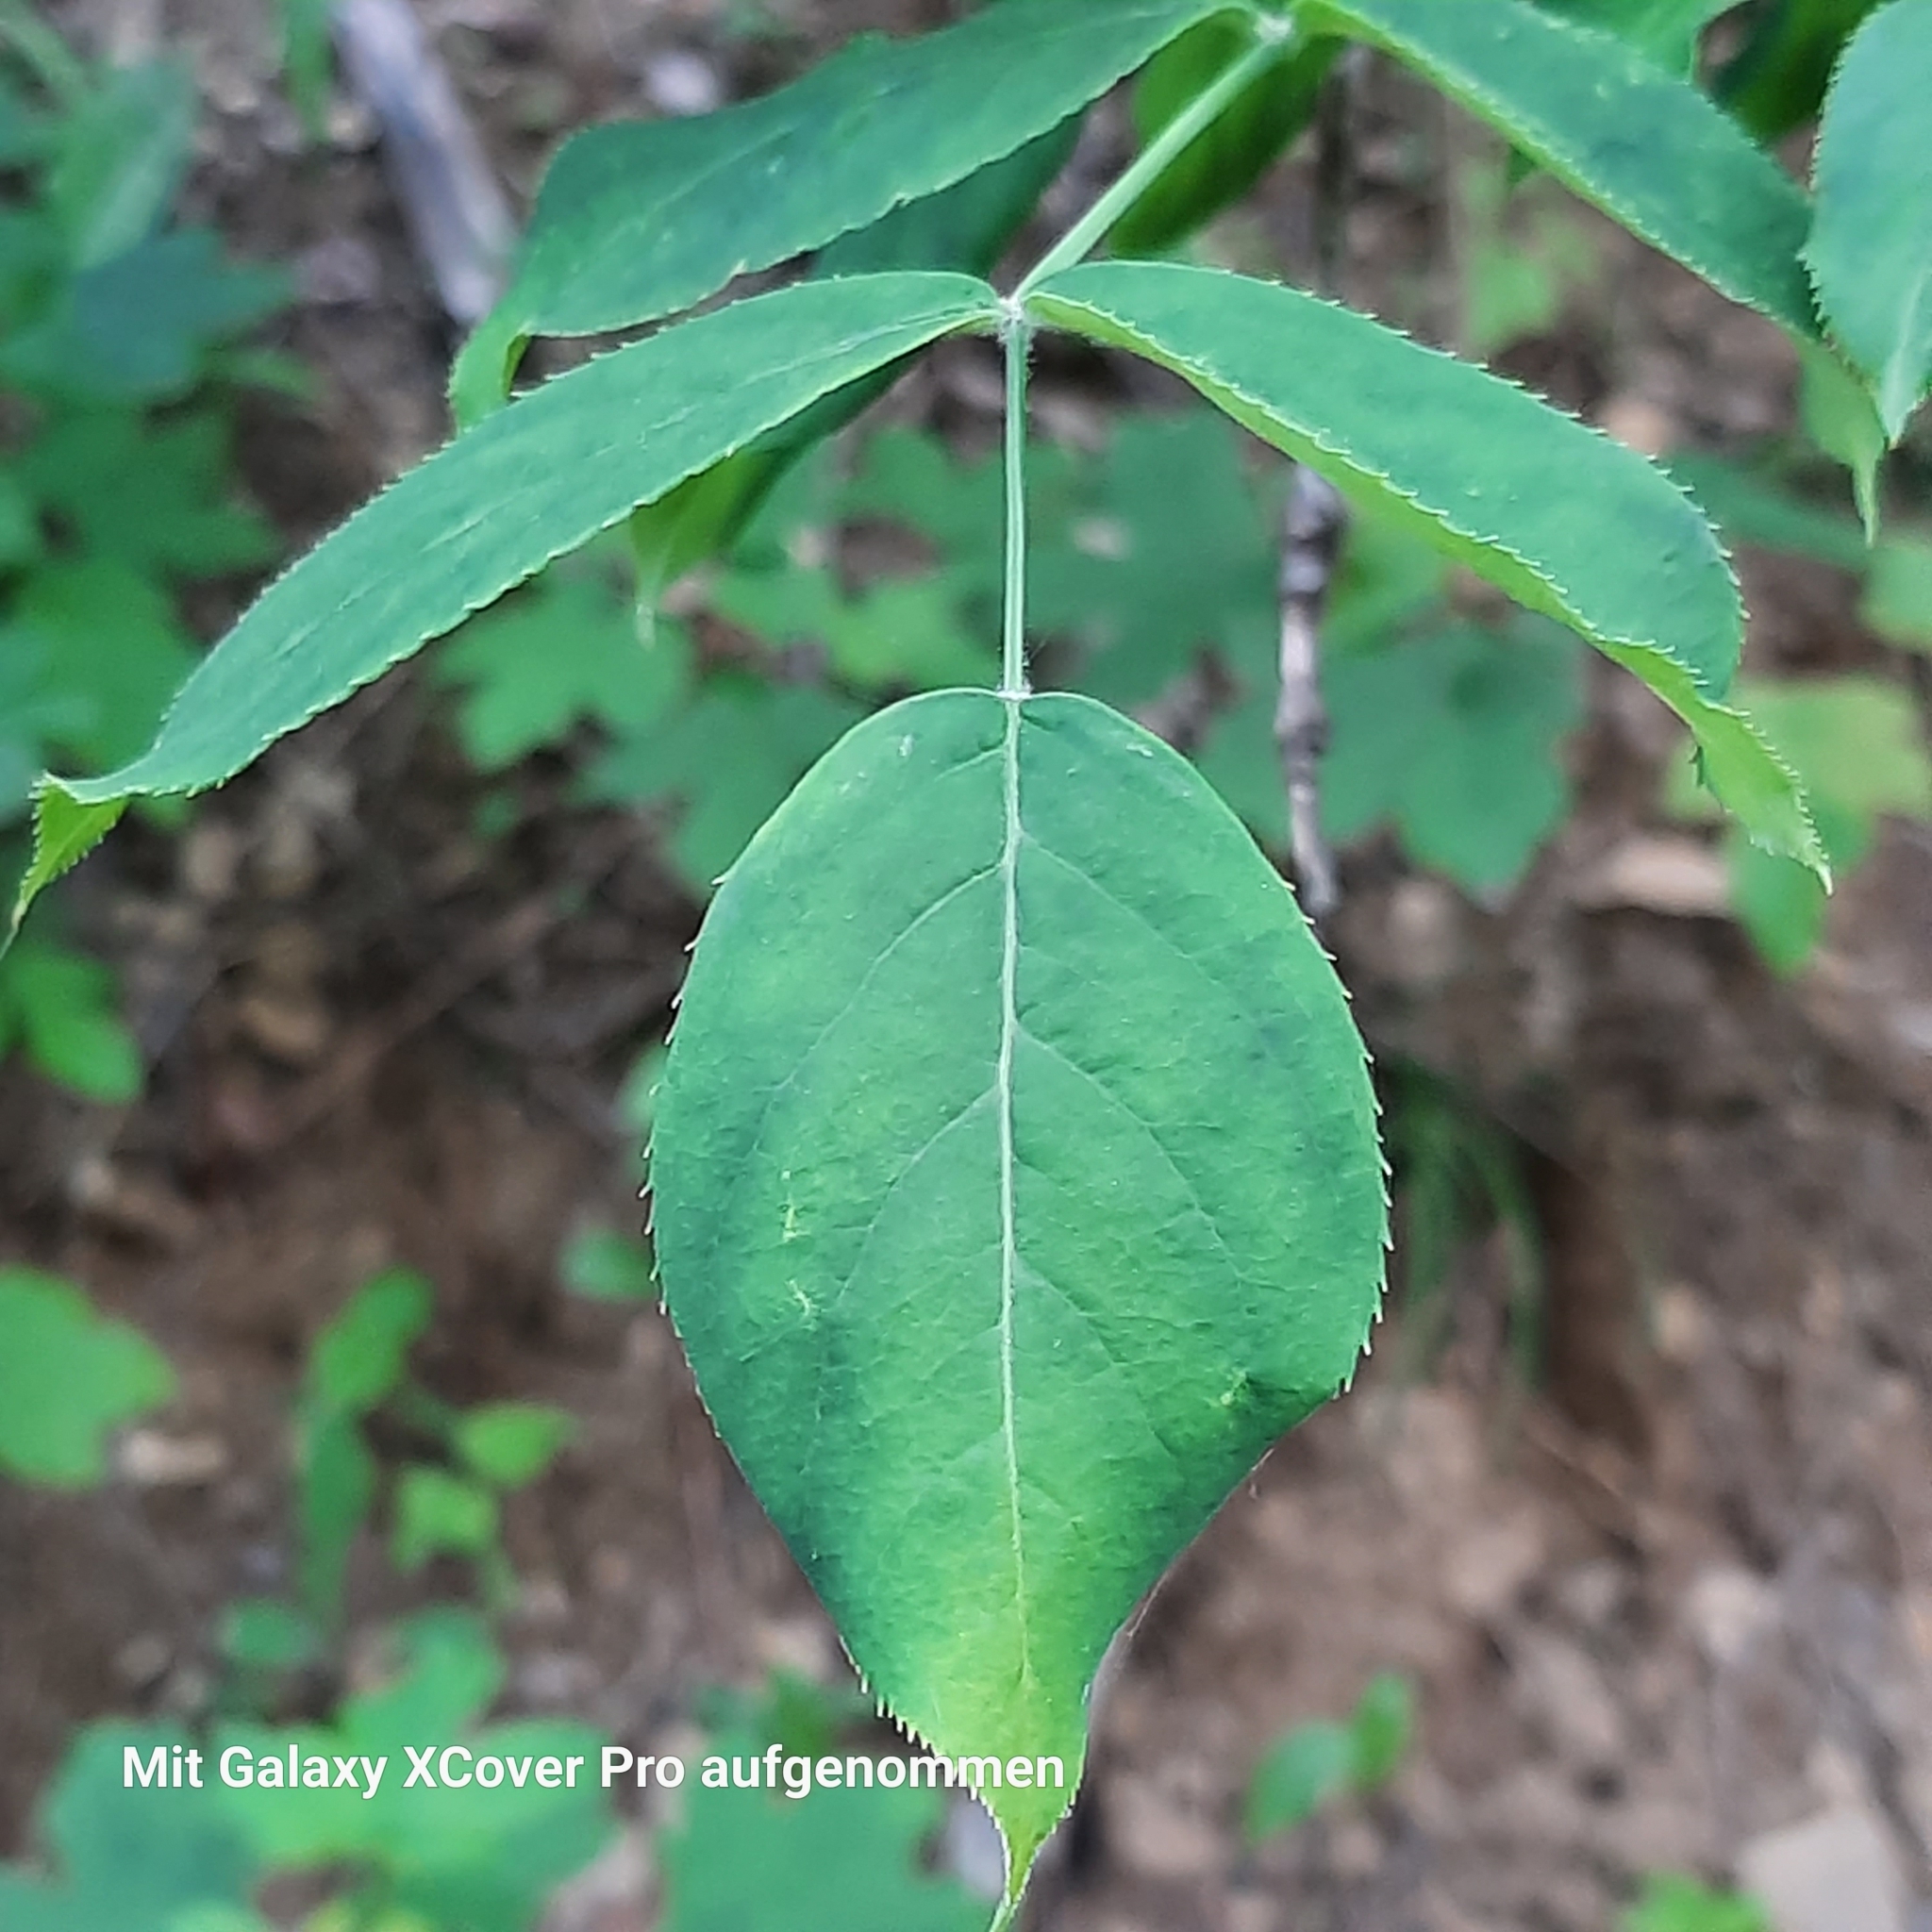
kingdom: Plantae
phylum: Tracheophyta
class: Magnoliopsida
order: Crossosomatales
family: Staphyleaceae
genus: Staphylea
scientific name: Staphylea pinnata
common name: Bladdernut
